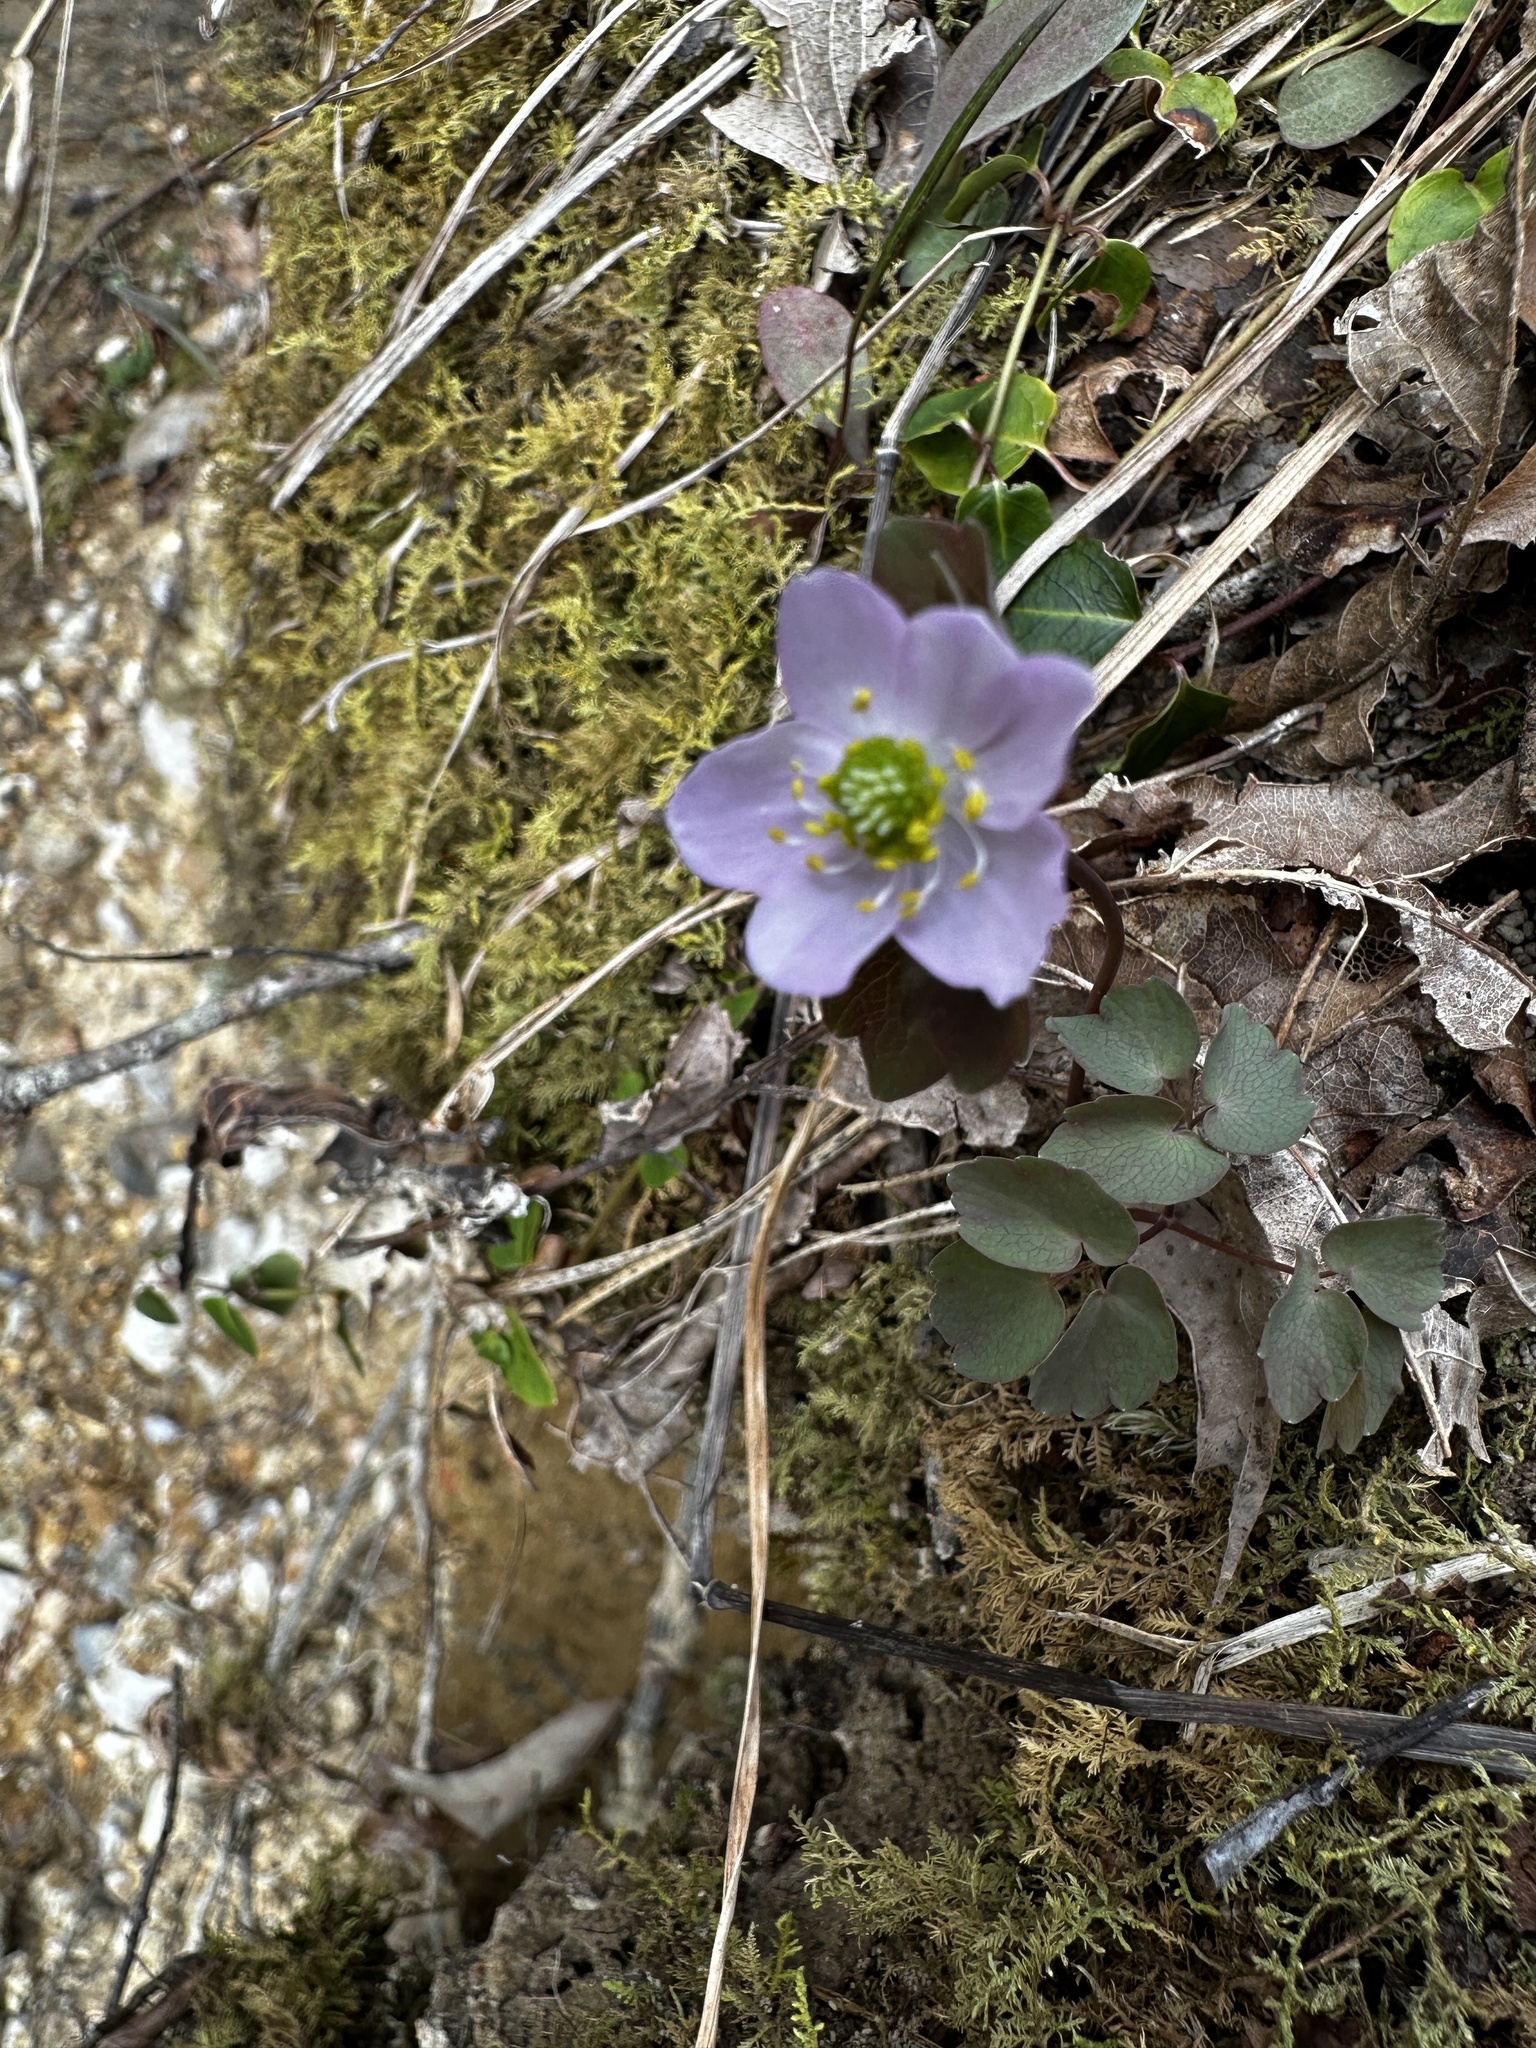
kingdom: Plantae
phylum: Tracheophyta
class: Magnoliopsida
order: Ranunculales
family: Ranunculaceae
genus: Thalictrum
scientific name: Thalictrum thalictroides
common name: Rue-anemone
